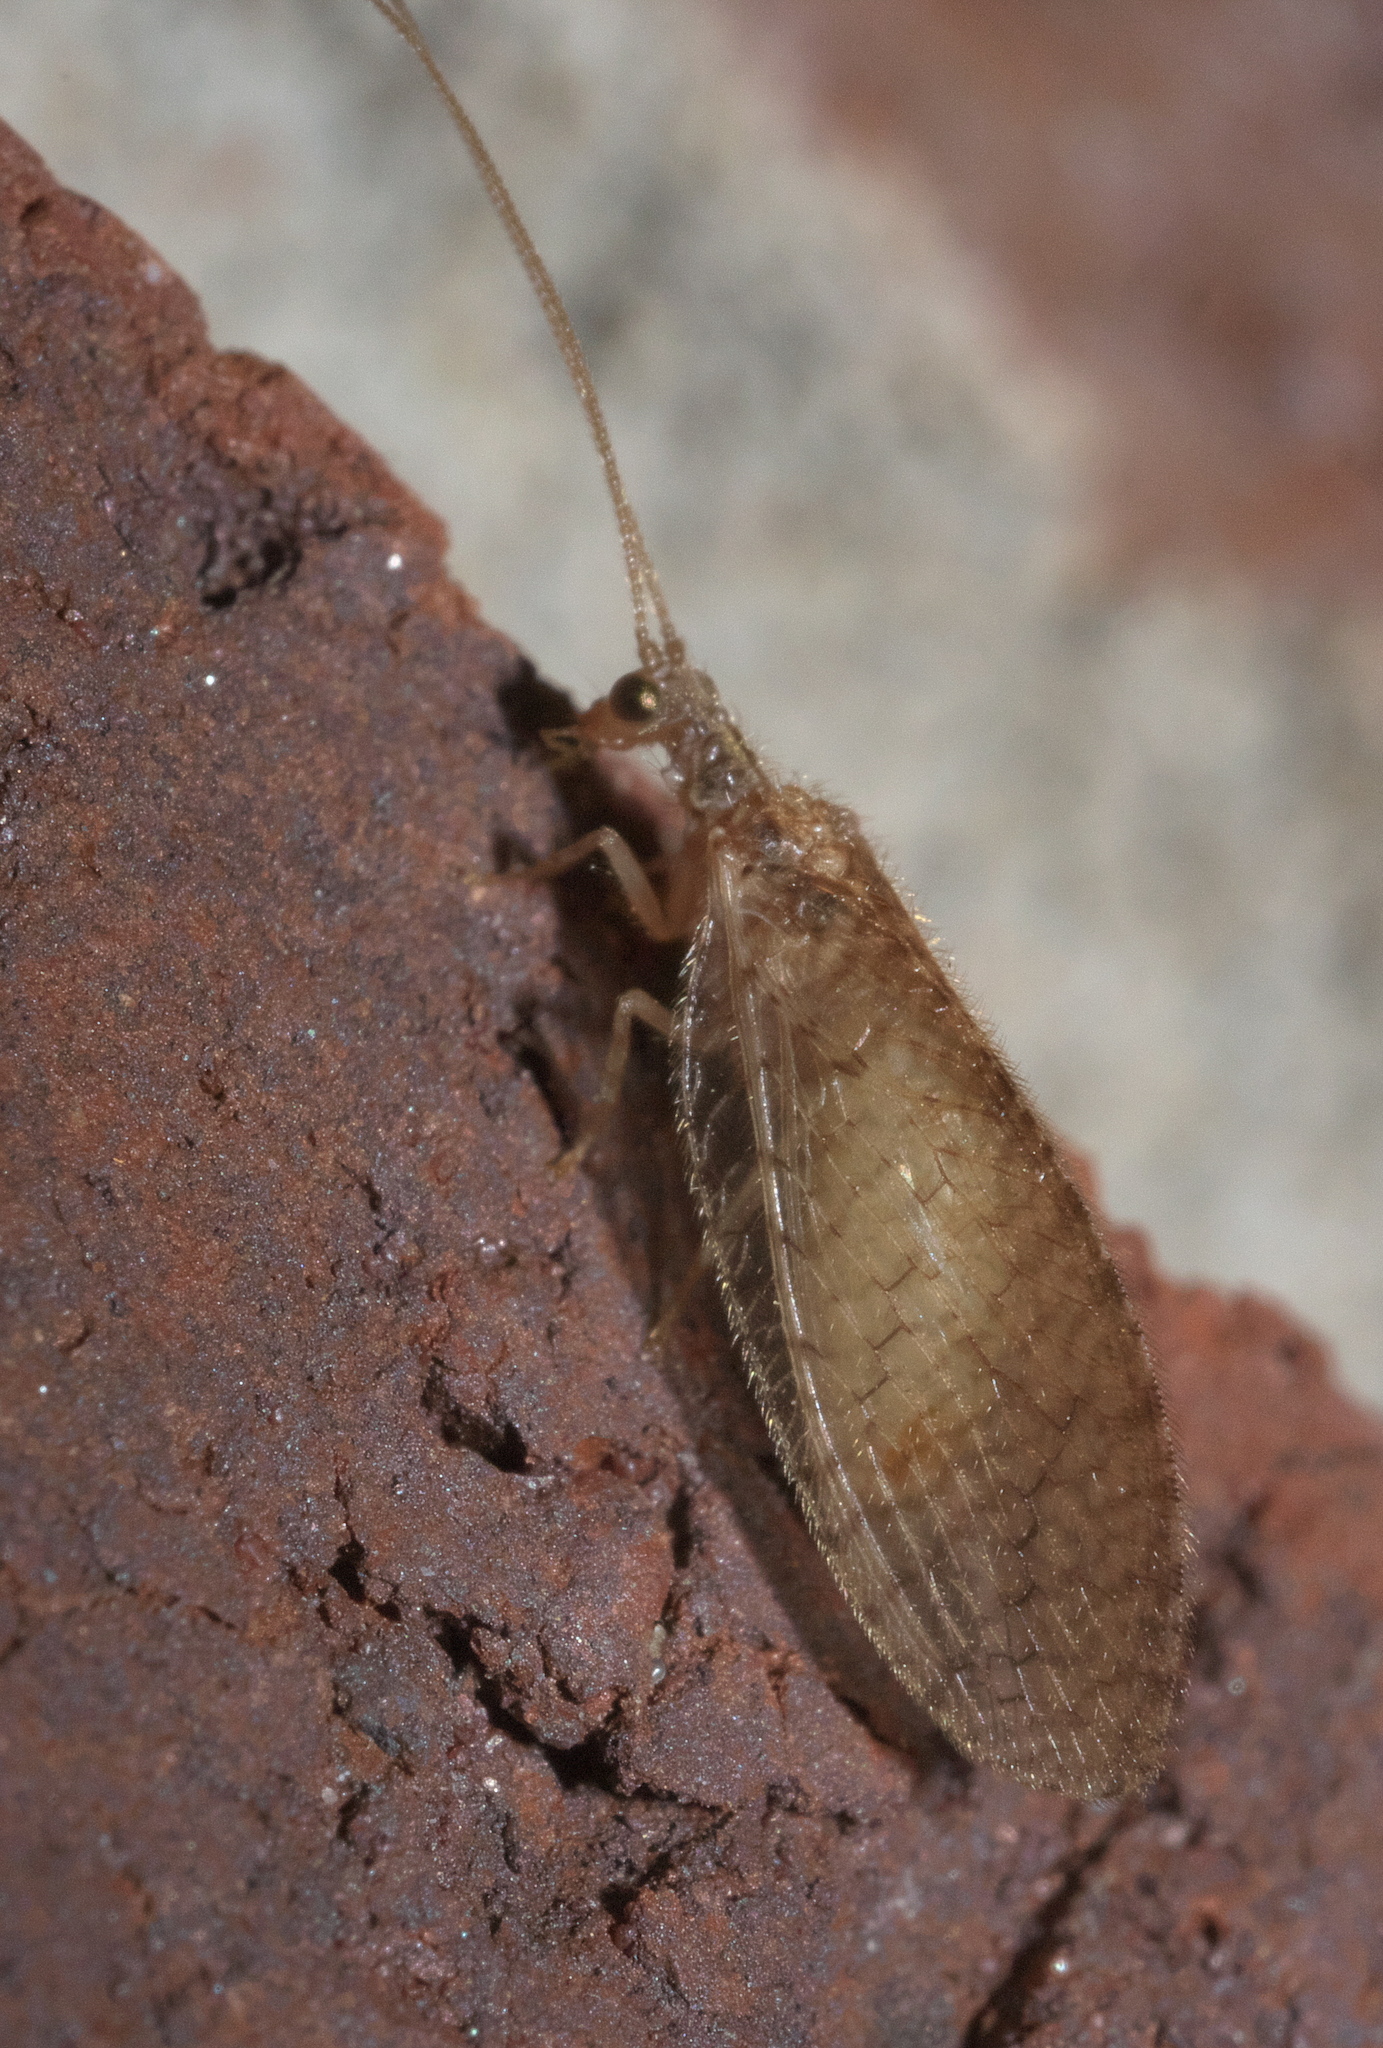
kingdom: Animalia
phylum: Arthropoda
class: Insecta
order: Neuroptera
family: Hemerobiidae
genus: Micromus
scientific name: Micromus posticus
